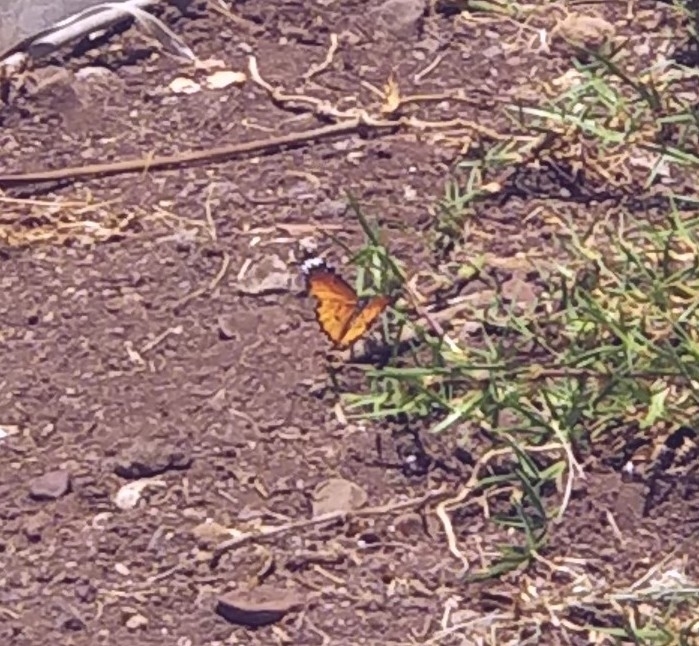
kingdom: Animalia
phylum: Arthropoda
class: Insecta
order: Lepidoptera
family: Nymphalidae
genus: Danaus
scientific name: Danaus chrysippus
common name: Plain tiger
